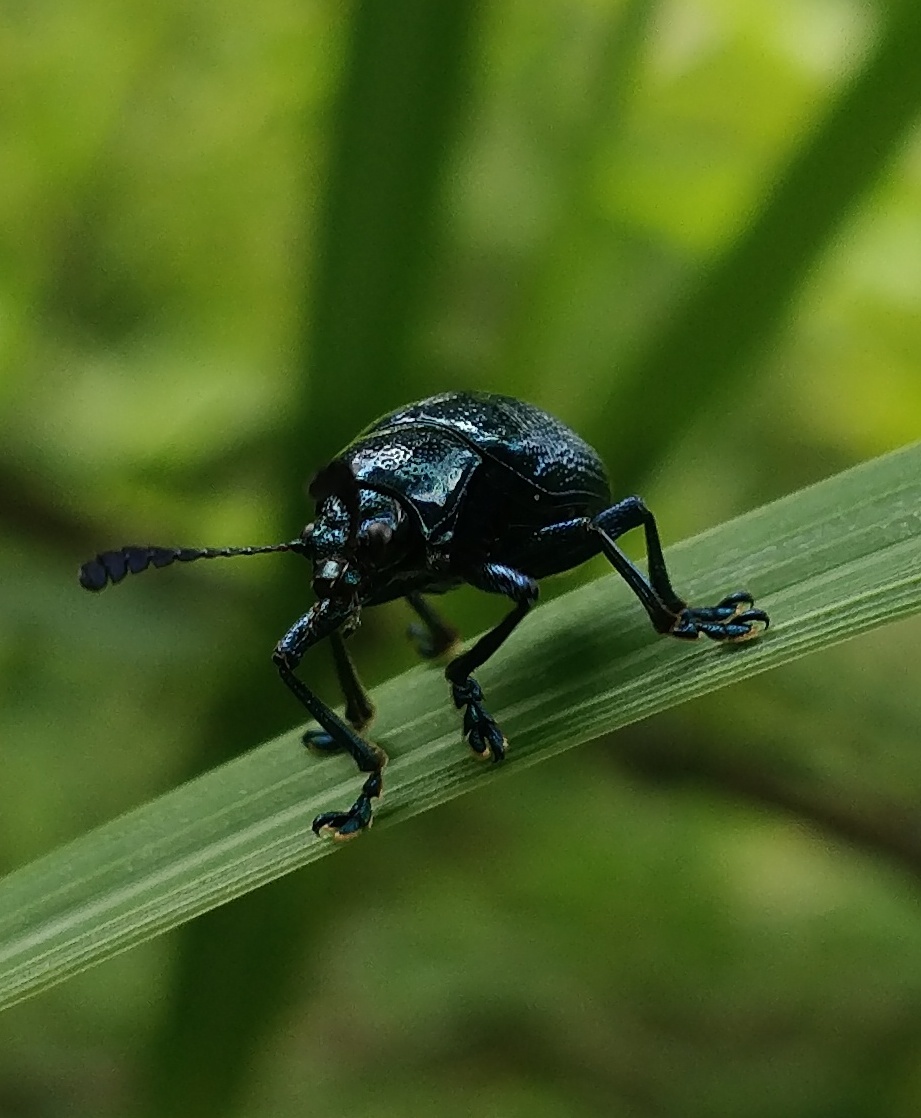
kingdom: Animalia
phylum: Arthropoda
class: Insecta
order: Coleoptera
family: Chrysomelidae
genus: Platycorynus
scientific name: Platycorynus
